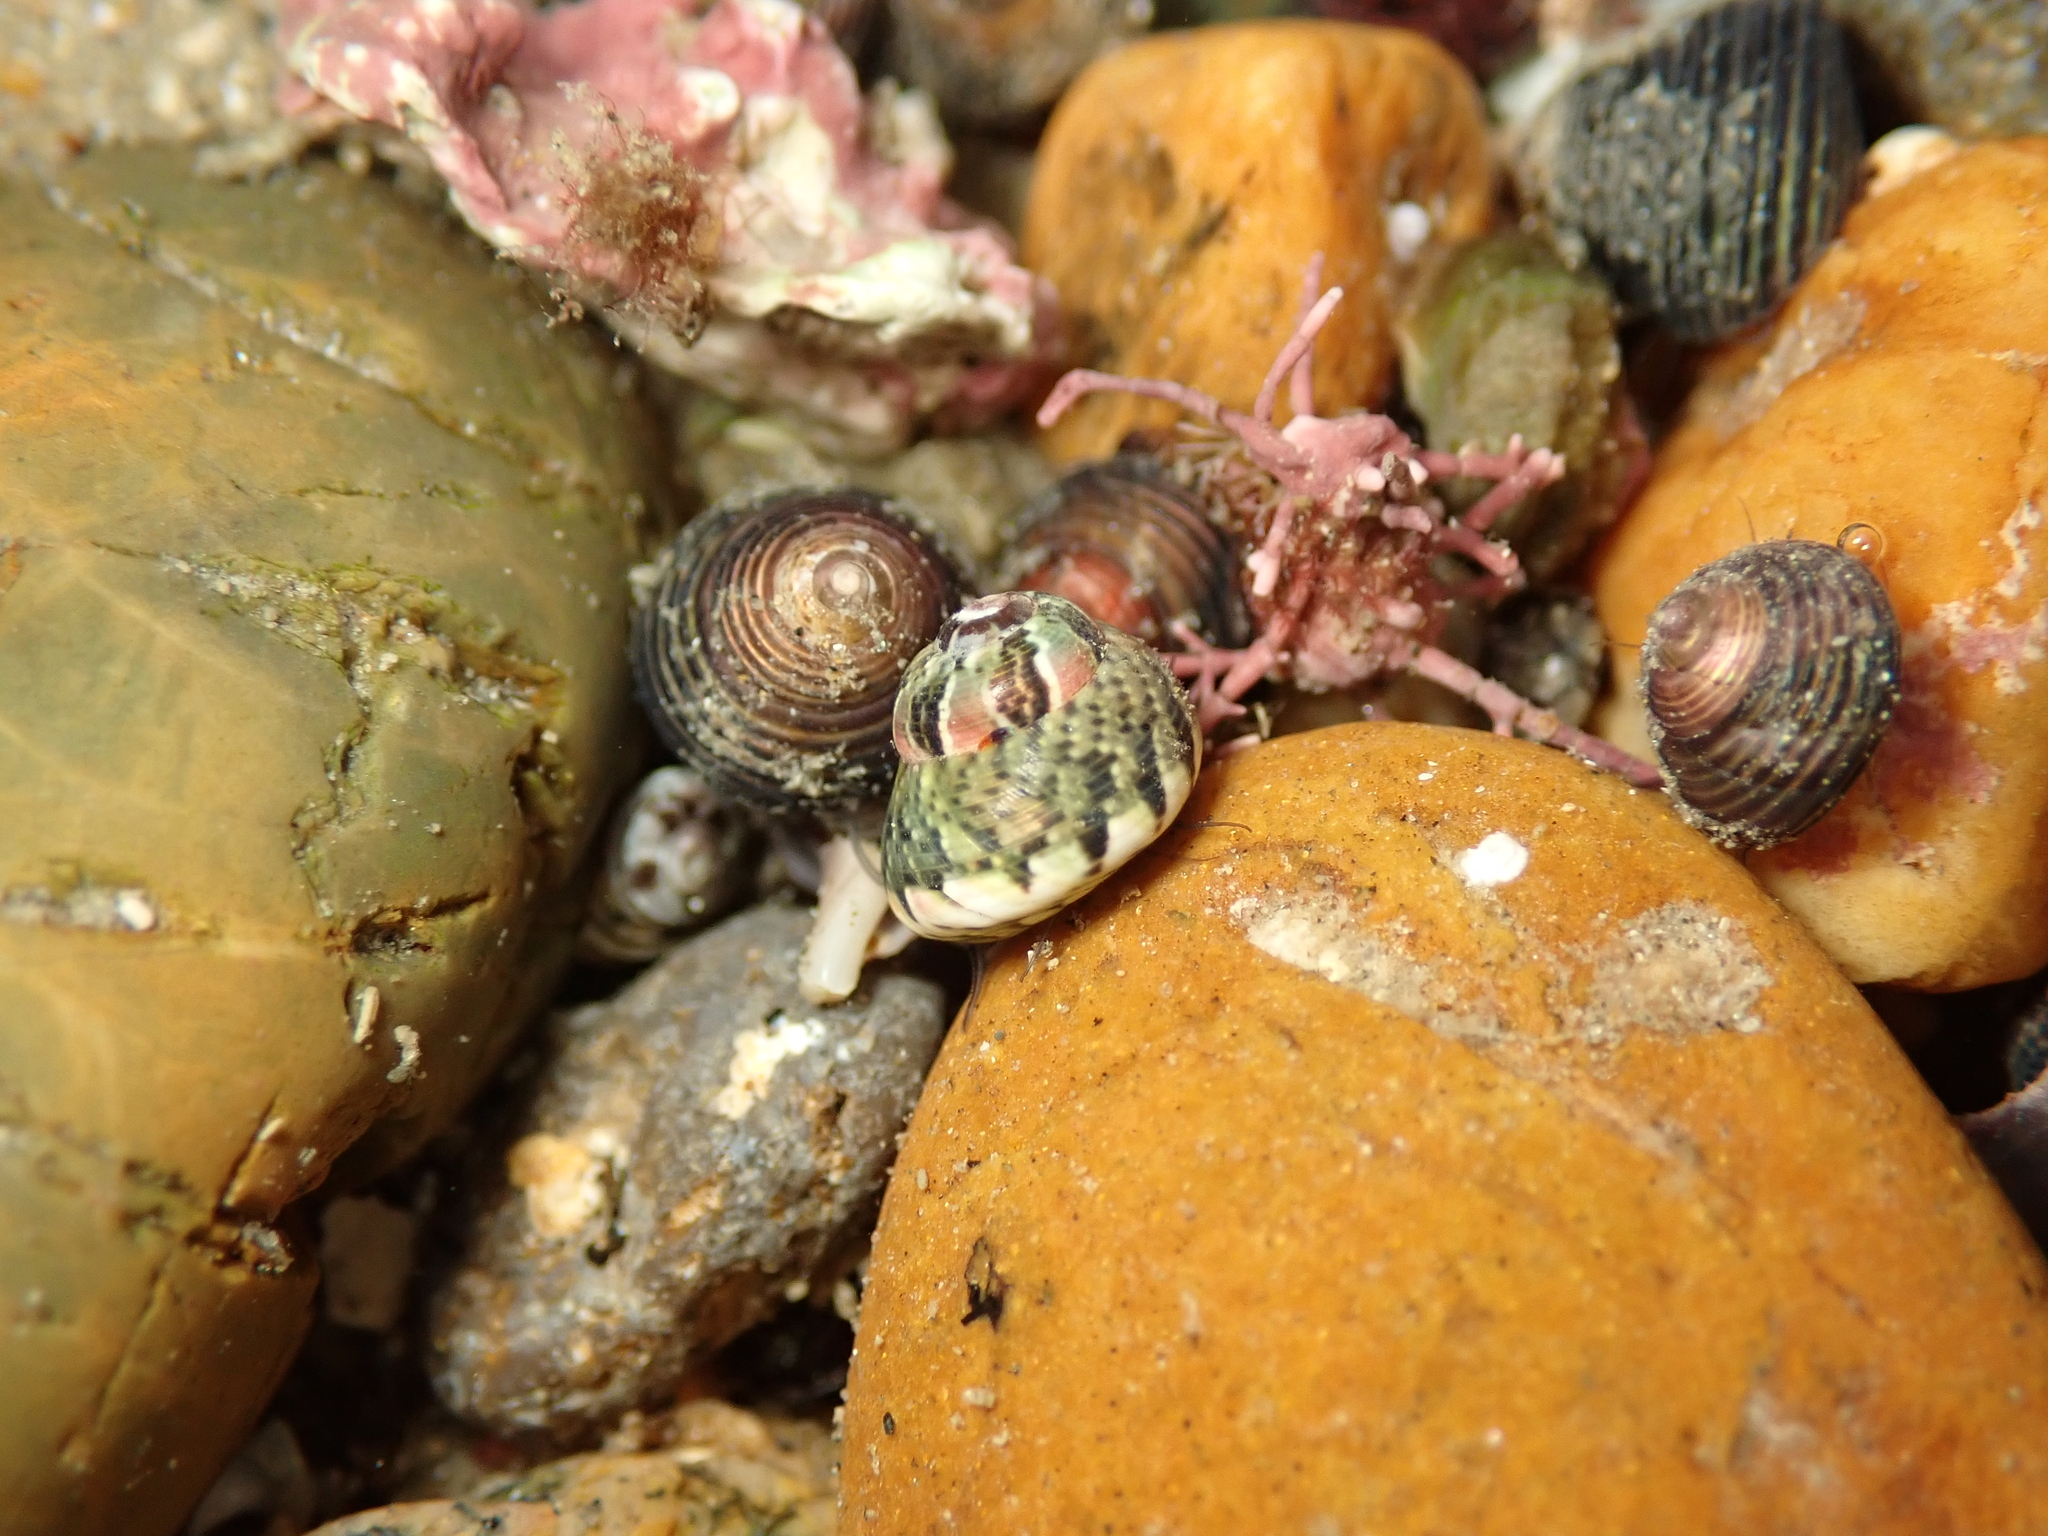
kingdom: Animalia
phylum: Mollusca
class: Gastropoda
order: Trochida
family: Trochidae
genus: Micrelenchus
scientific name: Micrelenchus tessellatus
